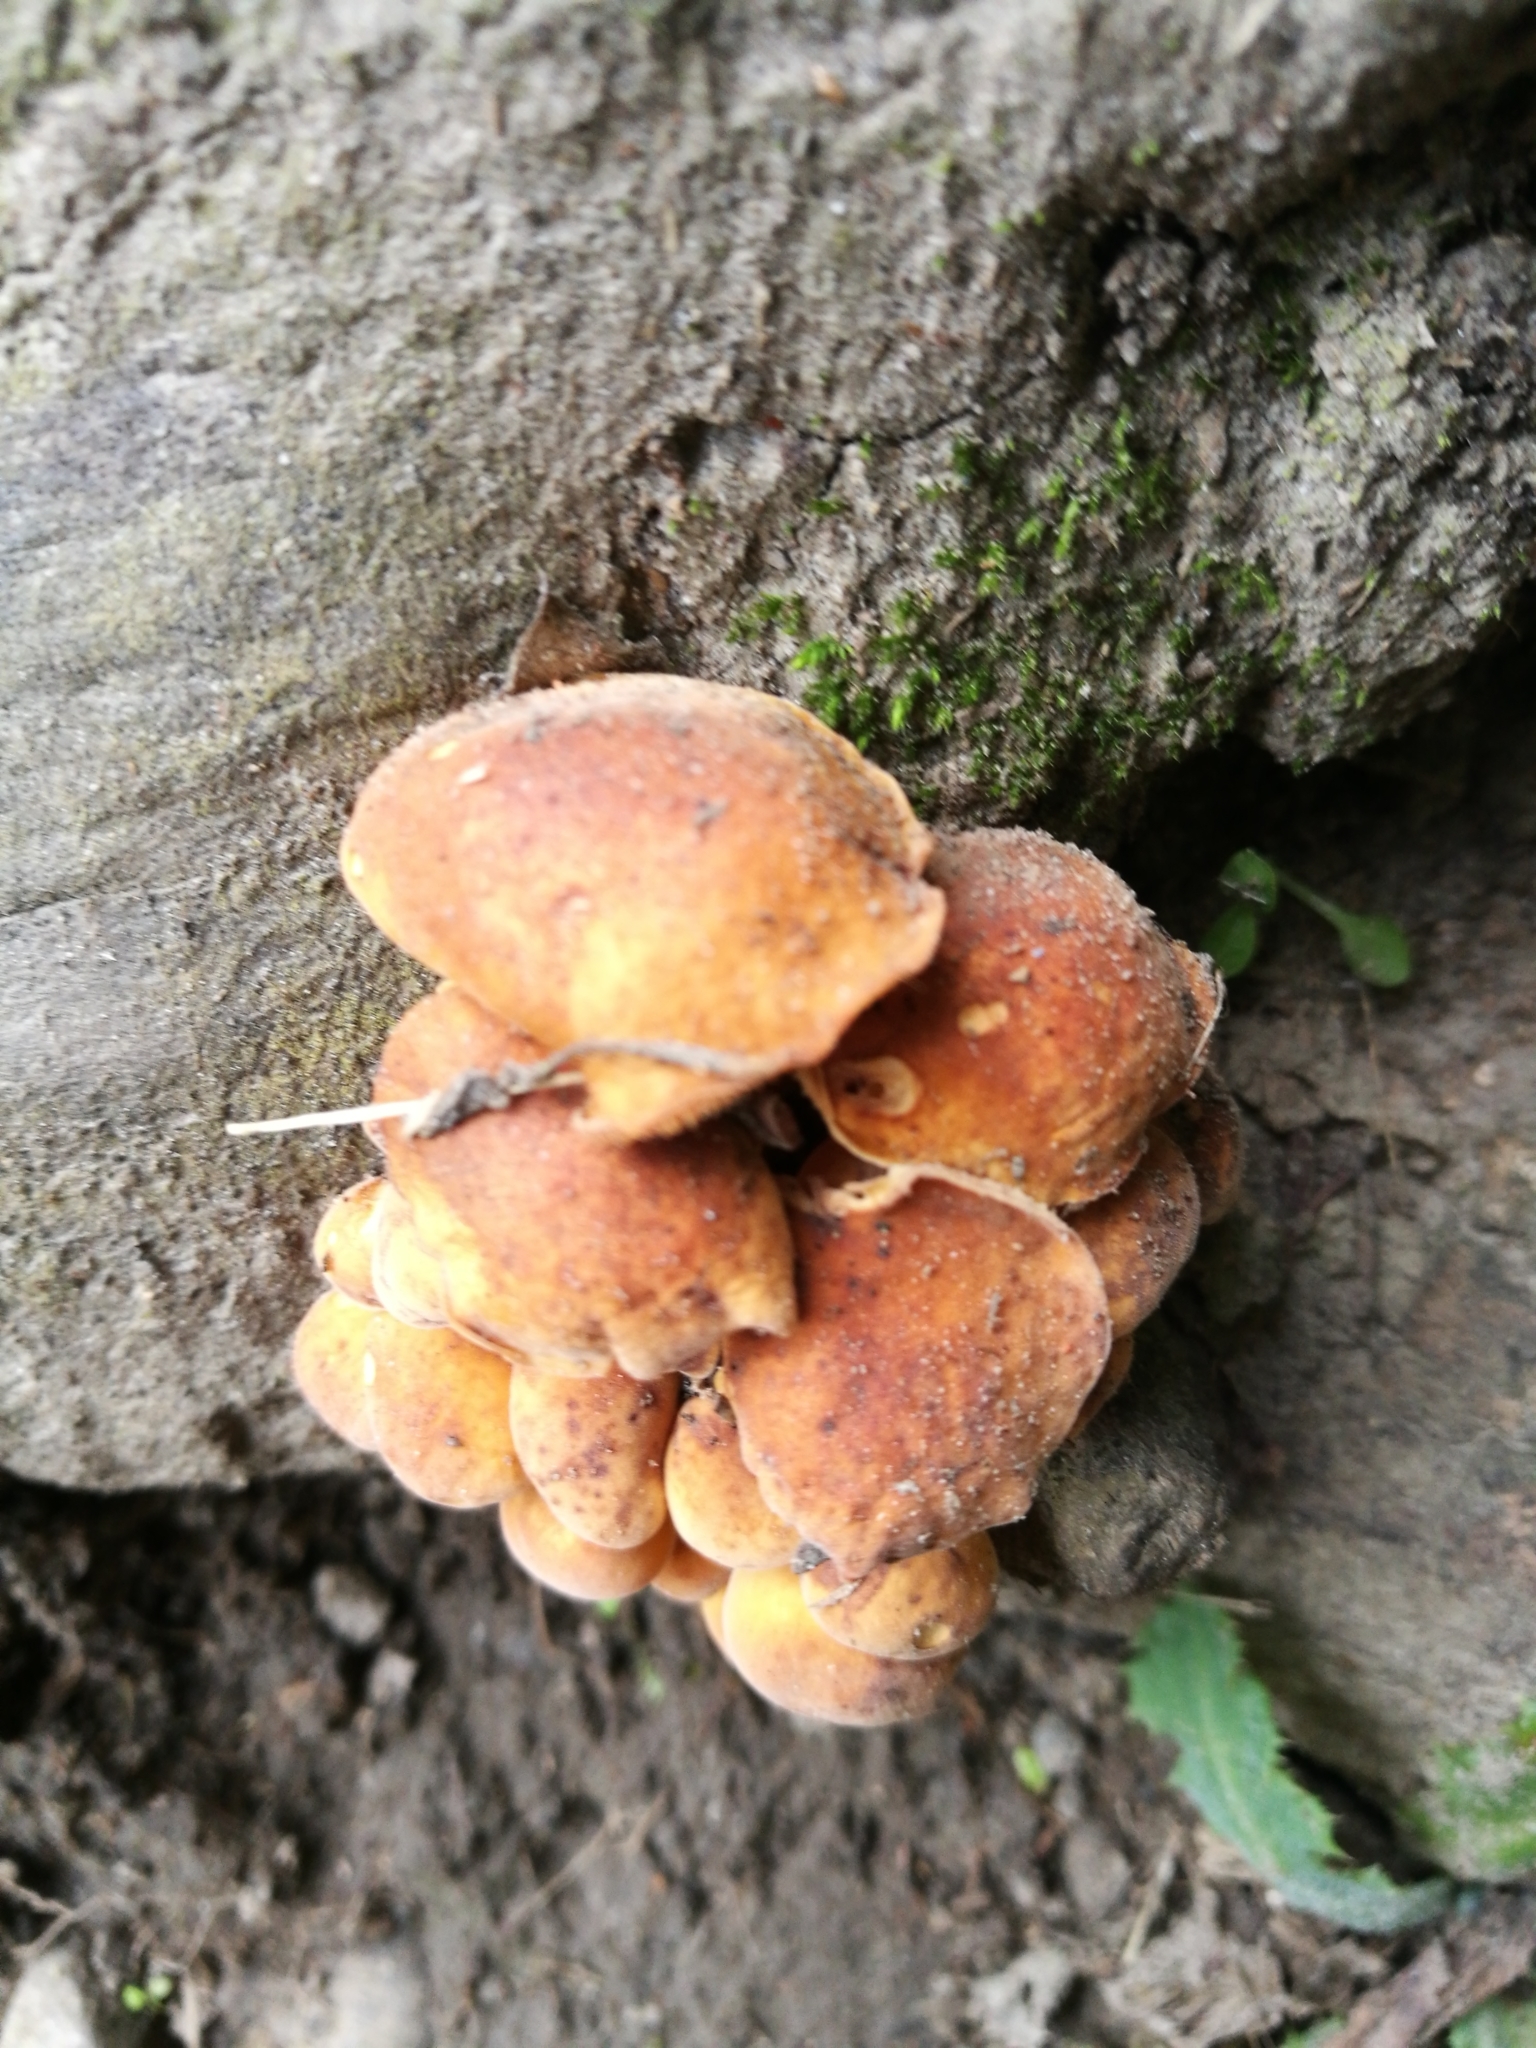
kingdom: Fungi
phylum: Basidiomycota
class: Agaricomycetes
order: Agaricales
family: Physalacriaceae
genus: Flammulina
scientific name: Flammulina velutipes
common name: Velvet shank
